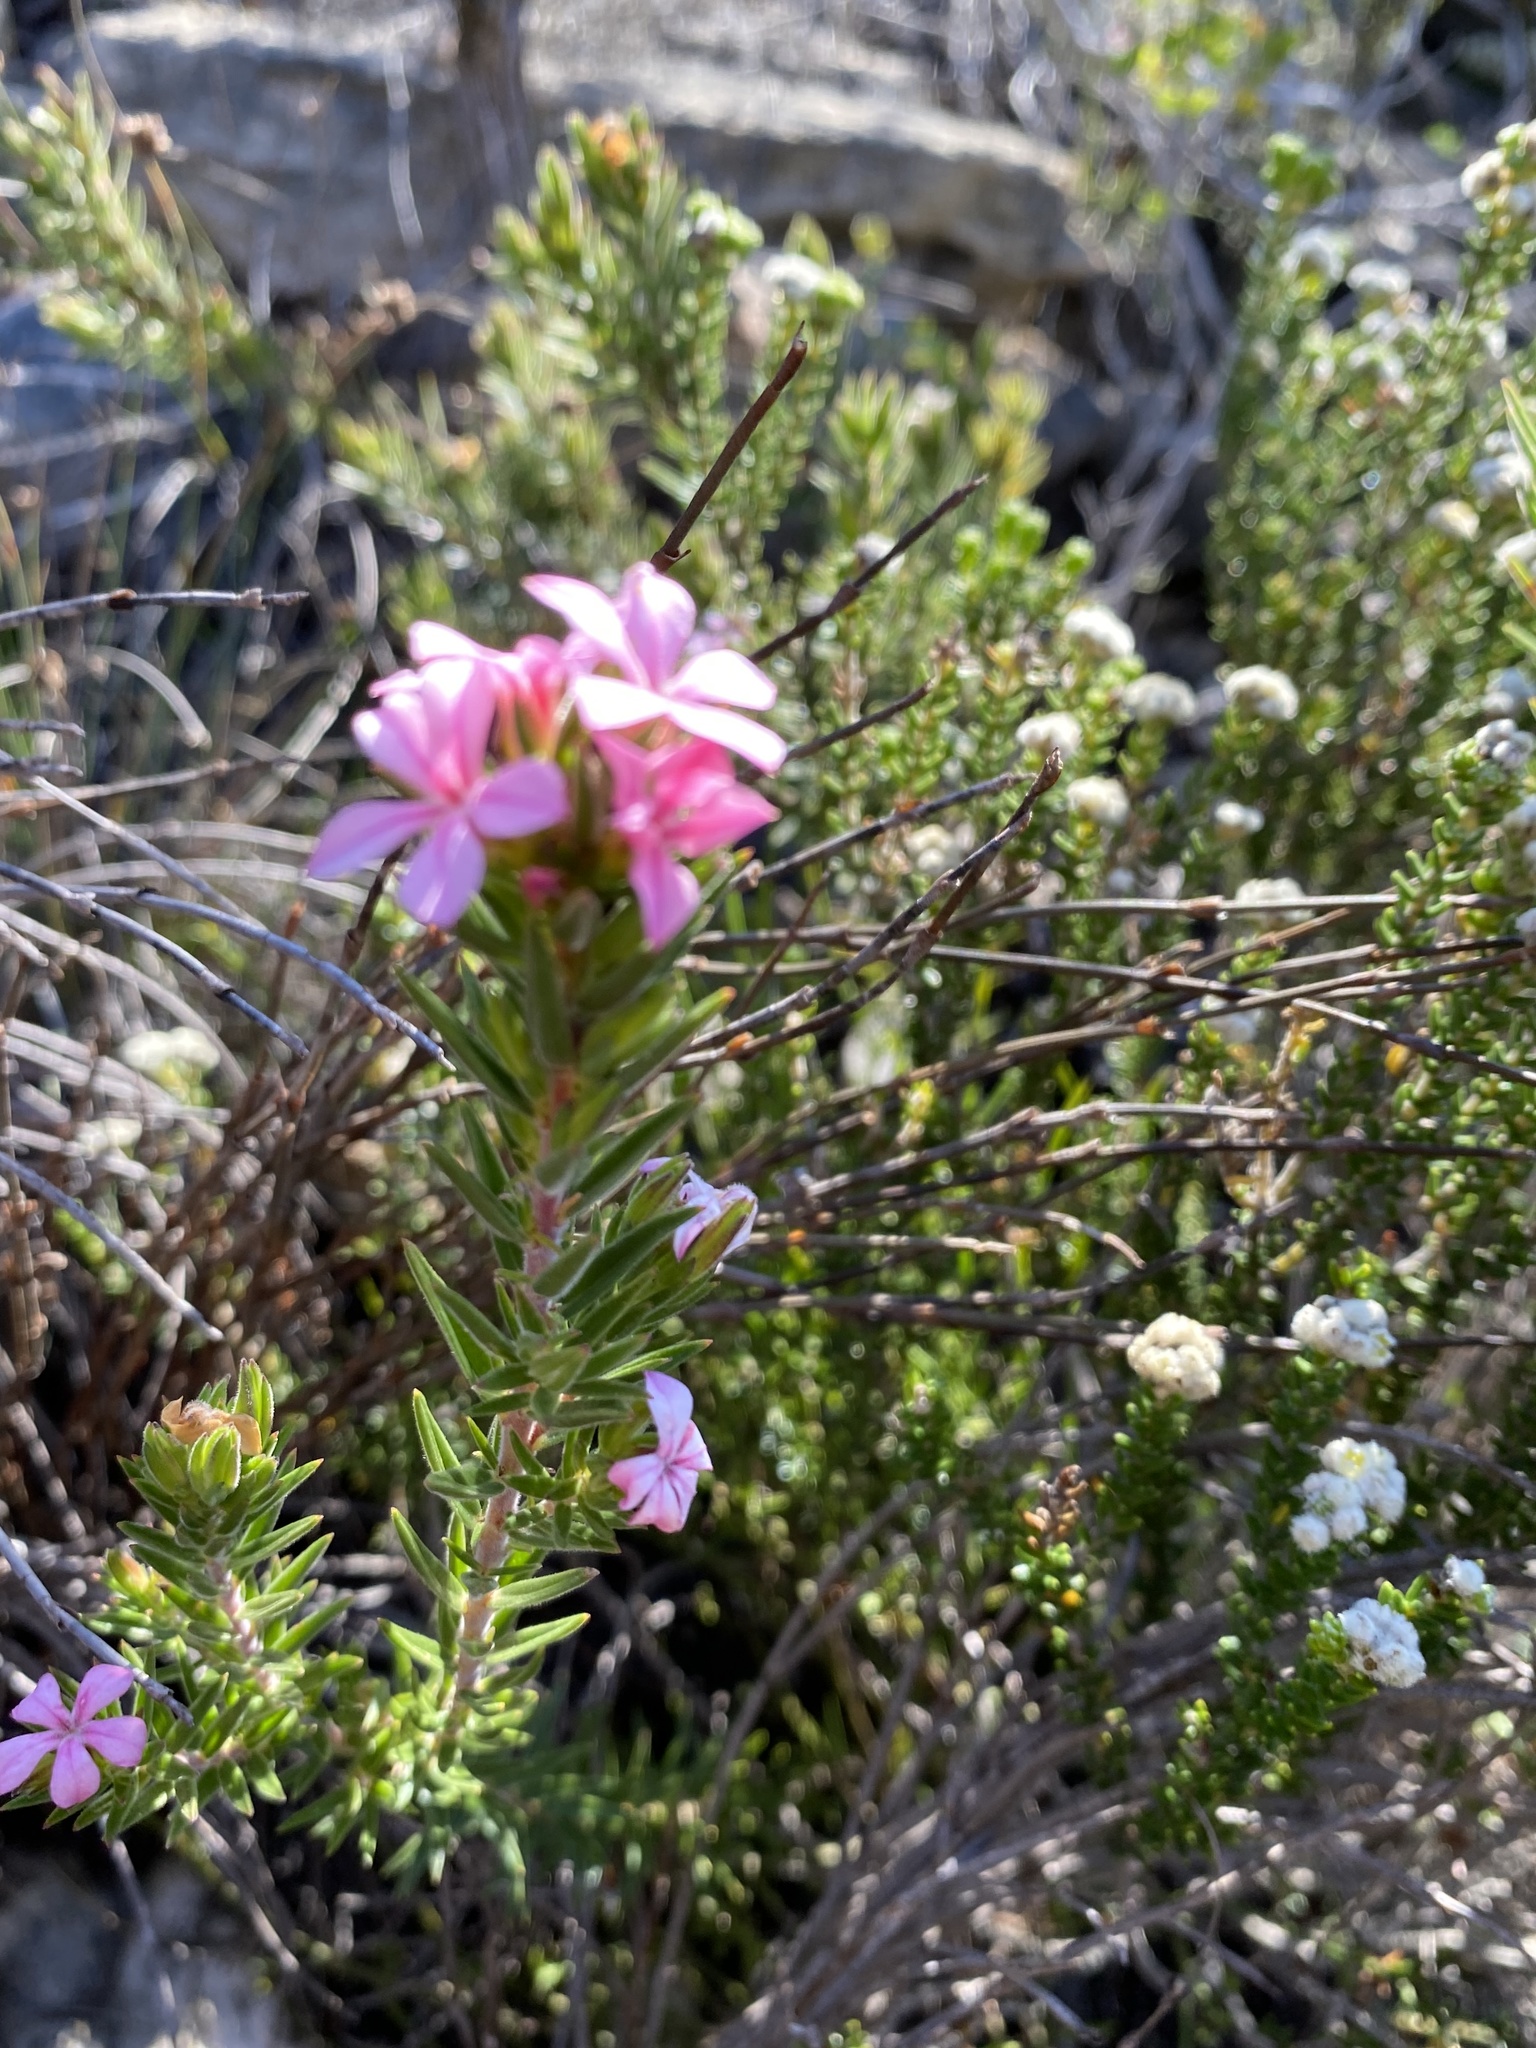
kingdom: Plantae
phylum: Tracheophyta
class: Magnoliopsida
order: Sapindales
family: Rutaceae
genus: Acmadenia
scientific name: Acmadenia obtusata
